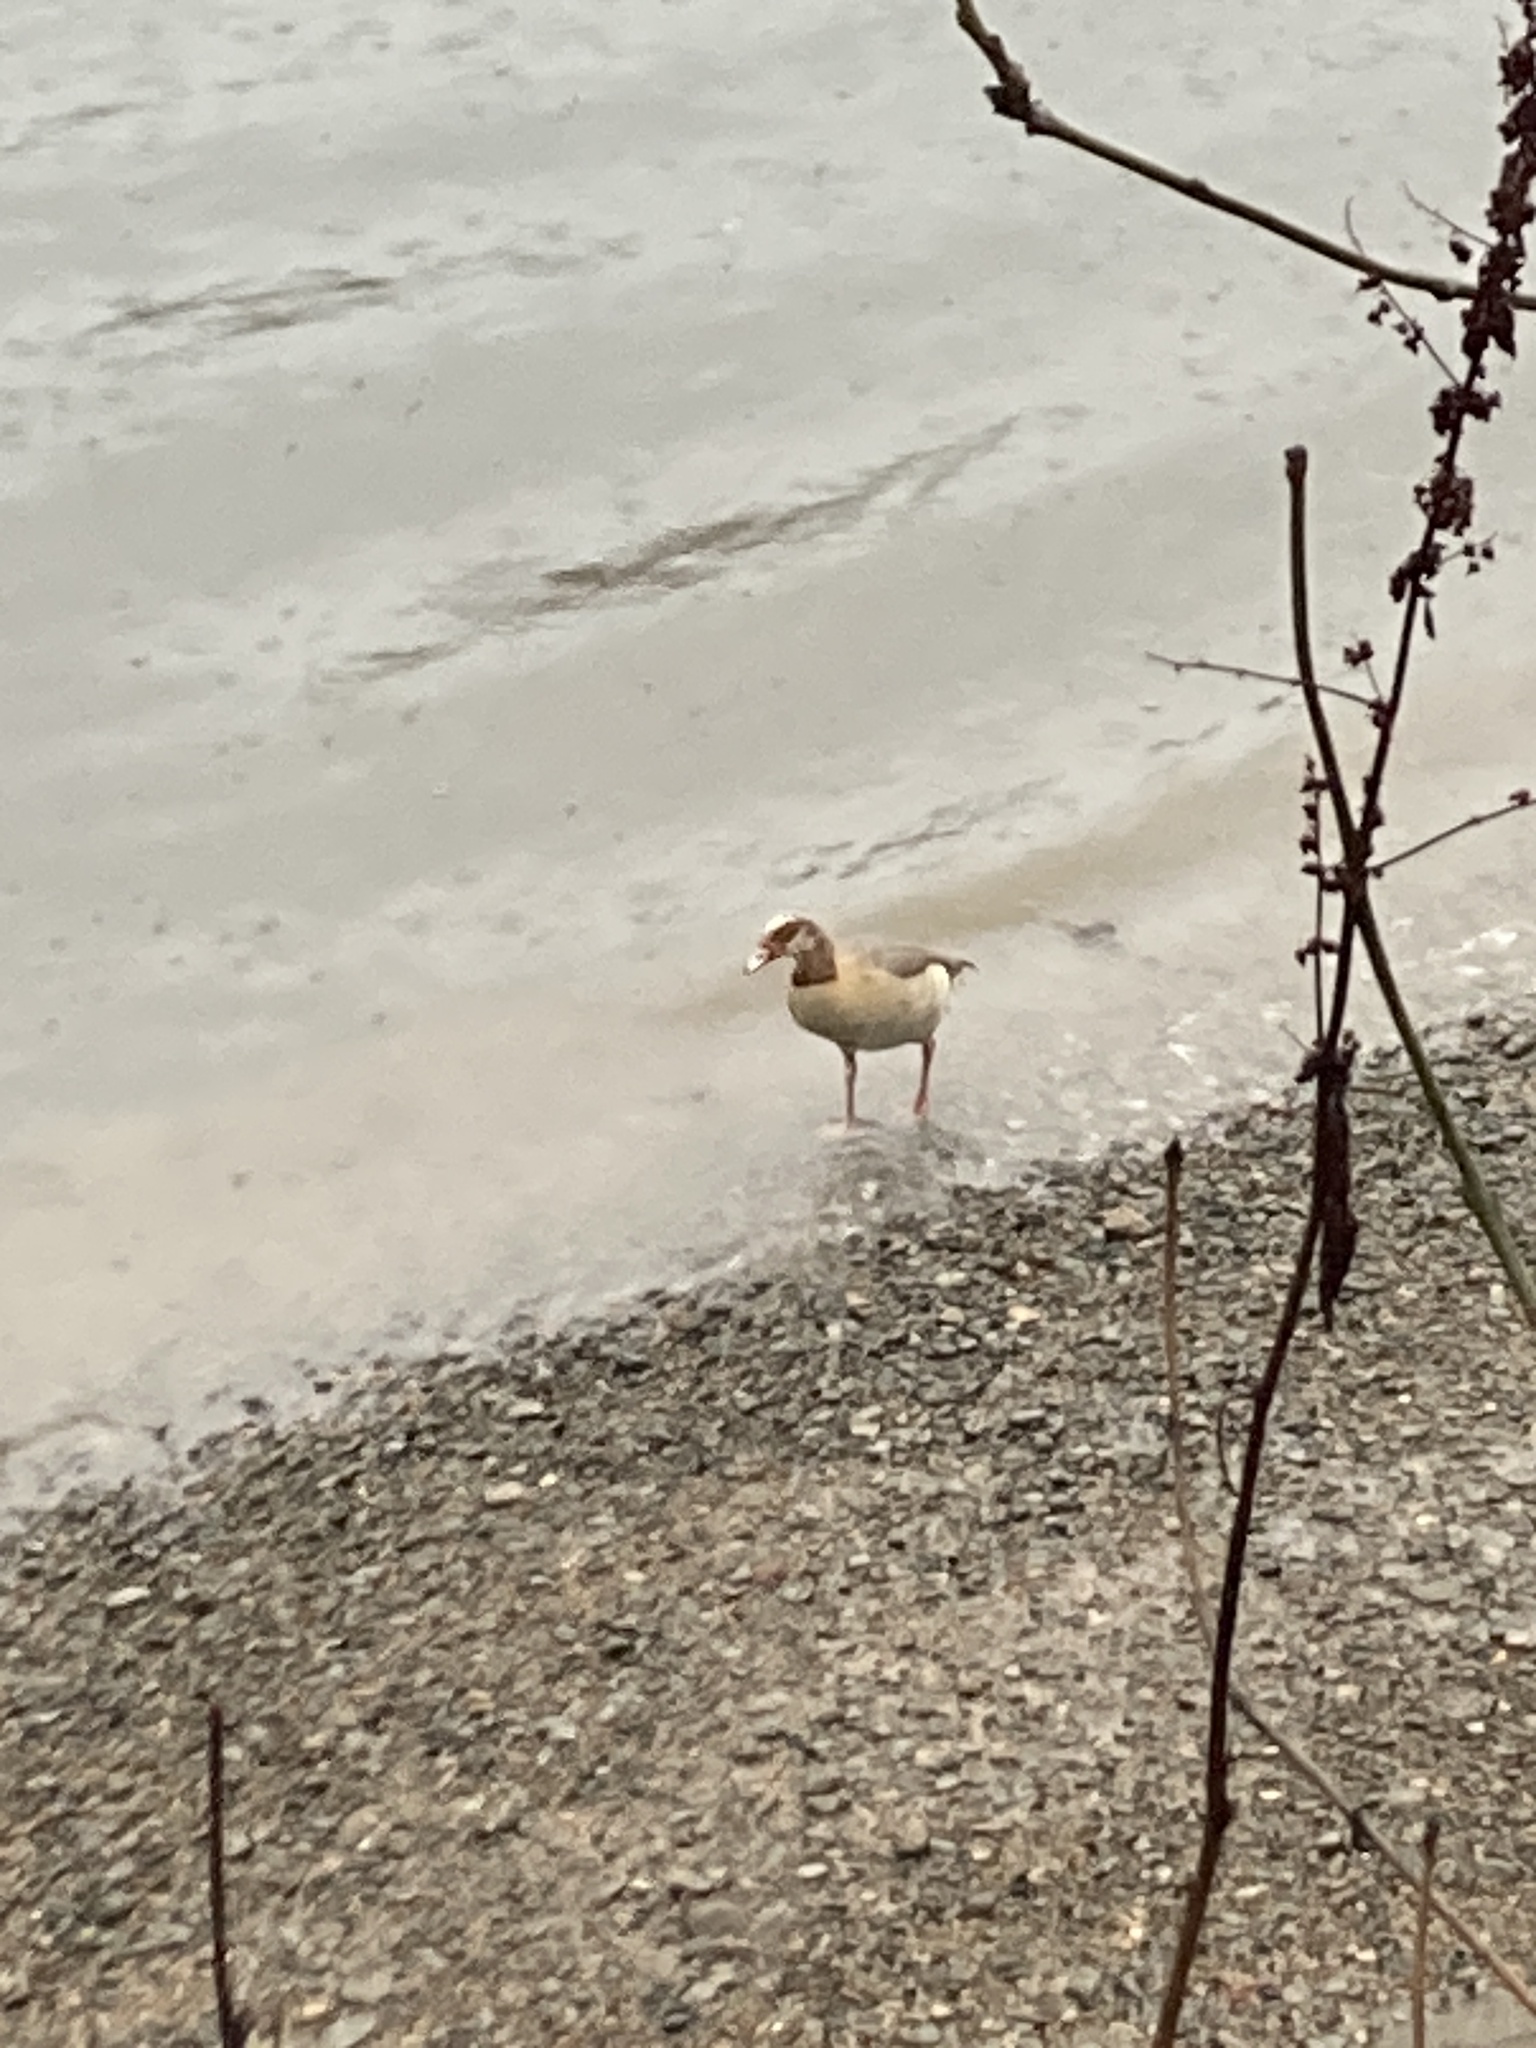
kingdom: Animalia
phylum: Chordata
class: Aves
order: Anseriformes
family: Anatidae
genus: Alopochen
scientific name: Alopochen aegyptiaca
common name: Egyptian goose
